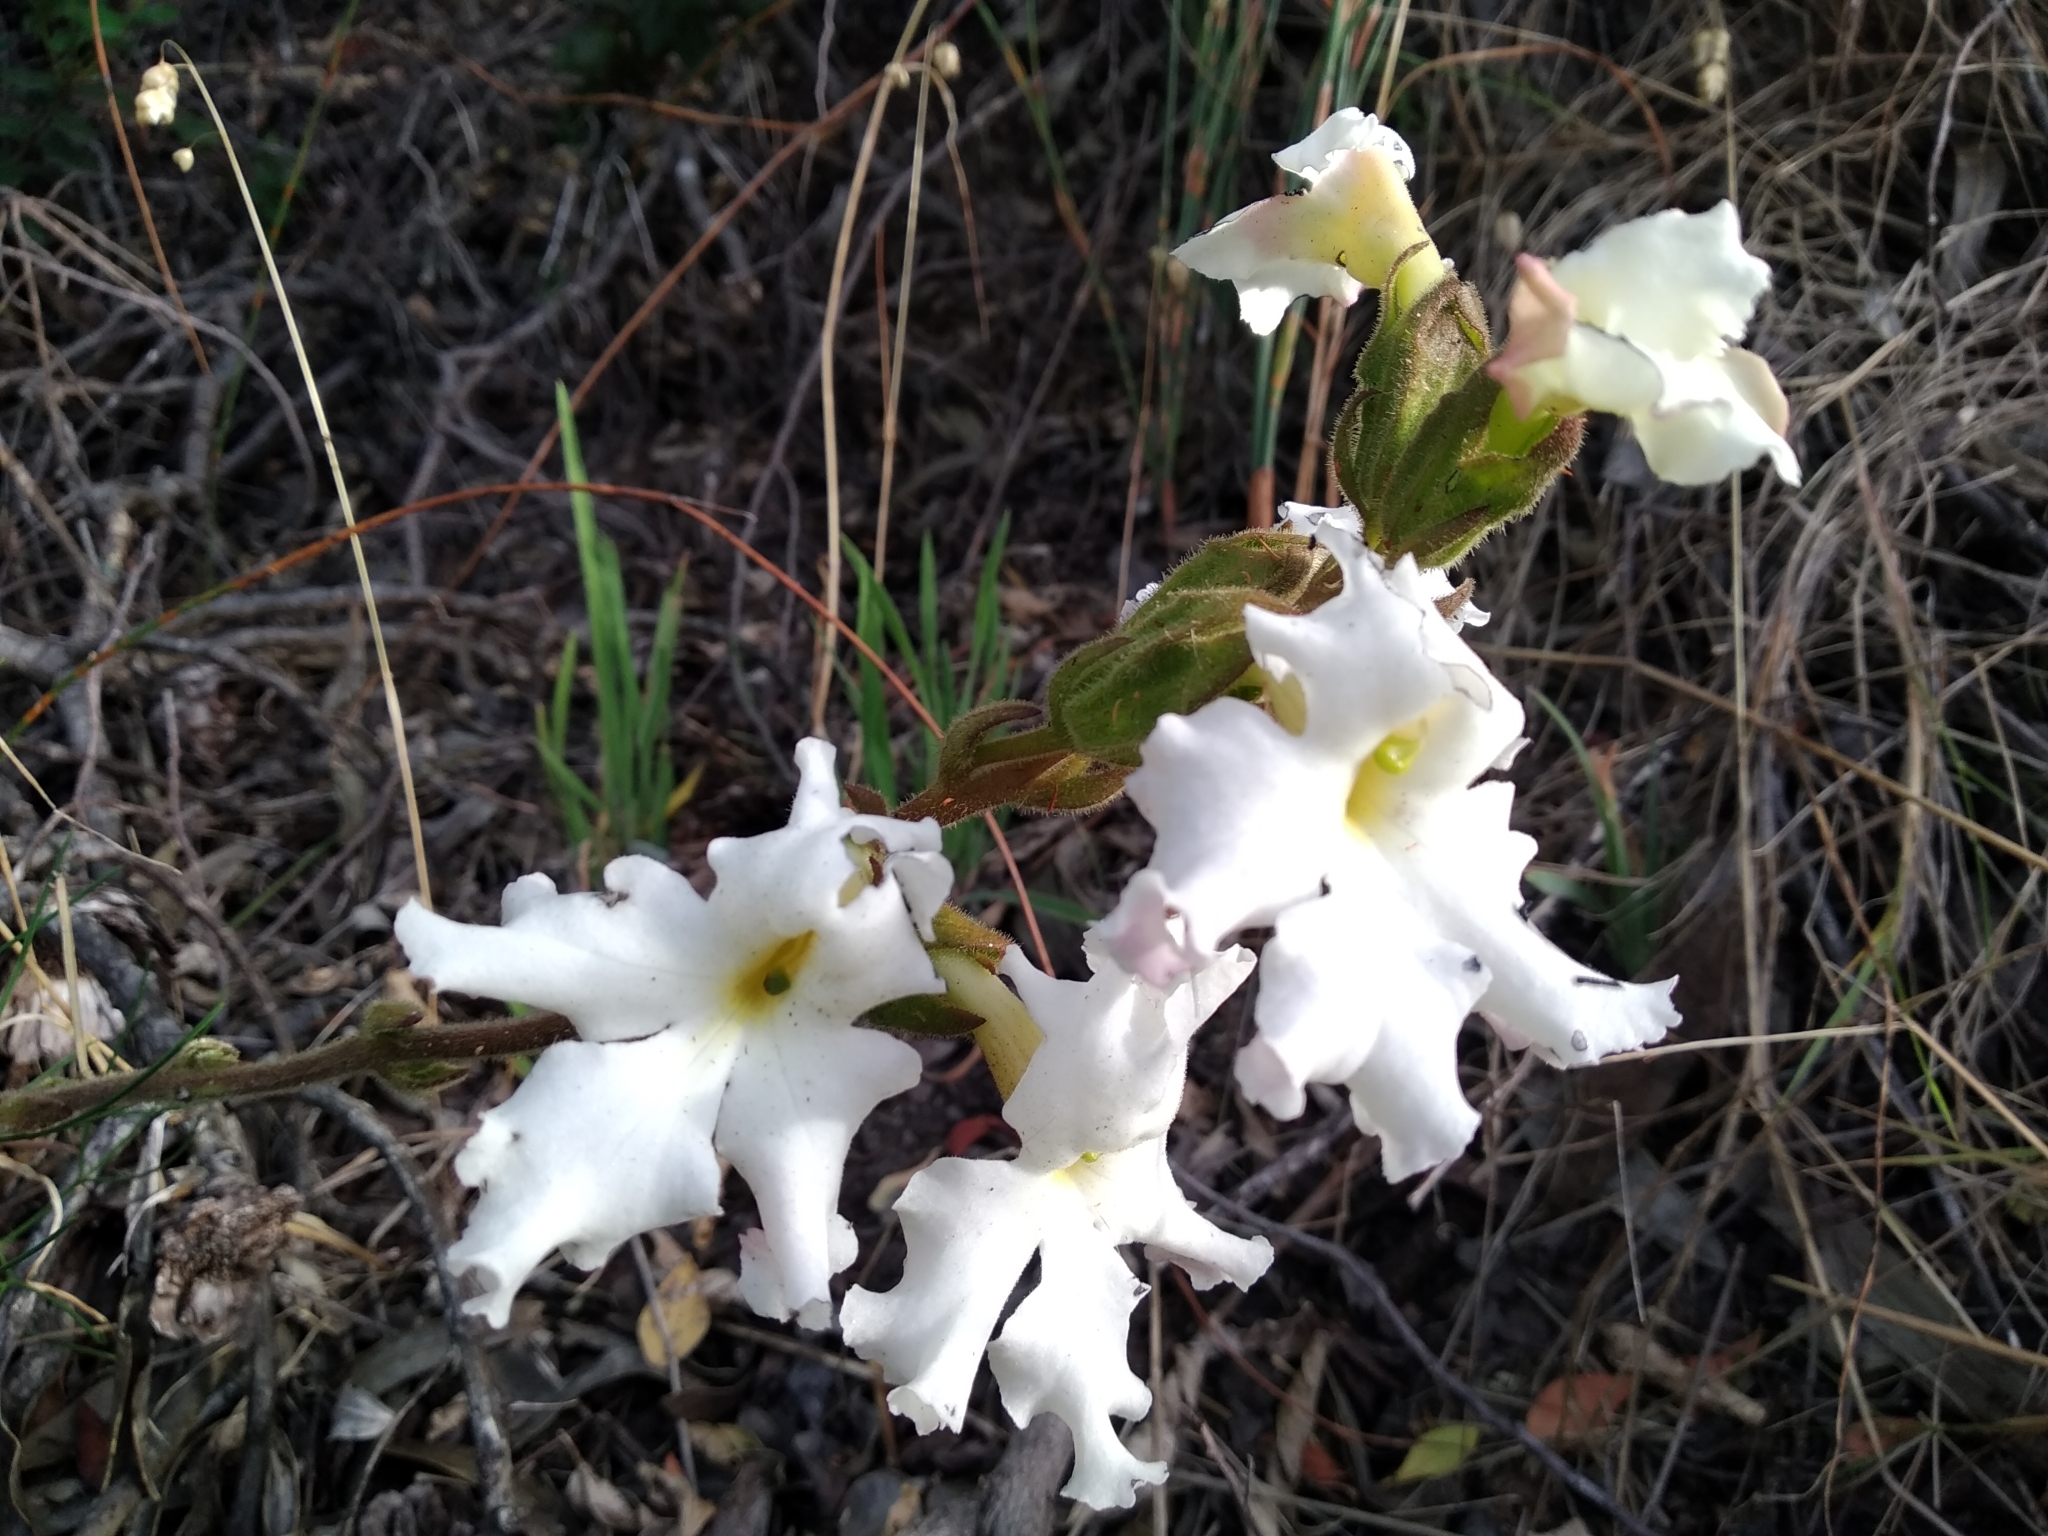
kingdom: Plantae
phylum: Tracheophyta
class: Magnoliopsida
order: Lamiales
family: Orobanchaceae
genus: Harveya
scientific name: Harveya capensis
